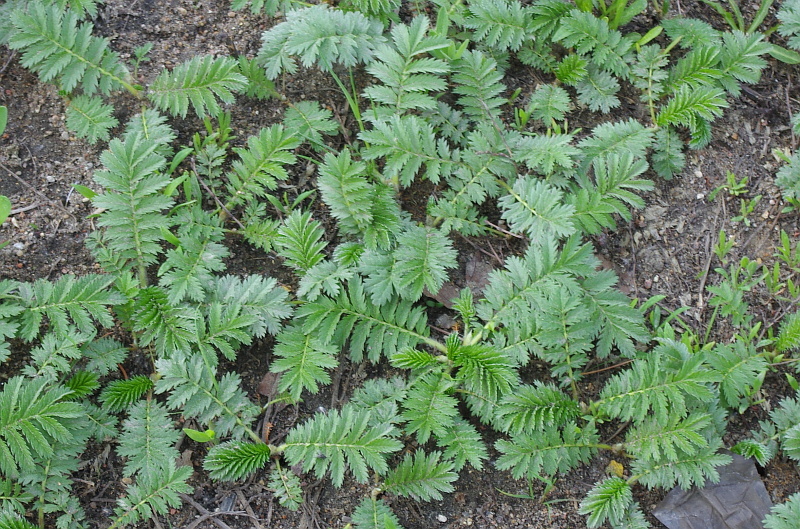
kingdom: Plantae
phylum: Tracheophyta
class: Magnoliopsida
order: Rosales
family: Rosaceae
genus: Argentina
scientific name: Argentina anserina
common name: Common silverweed
